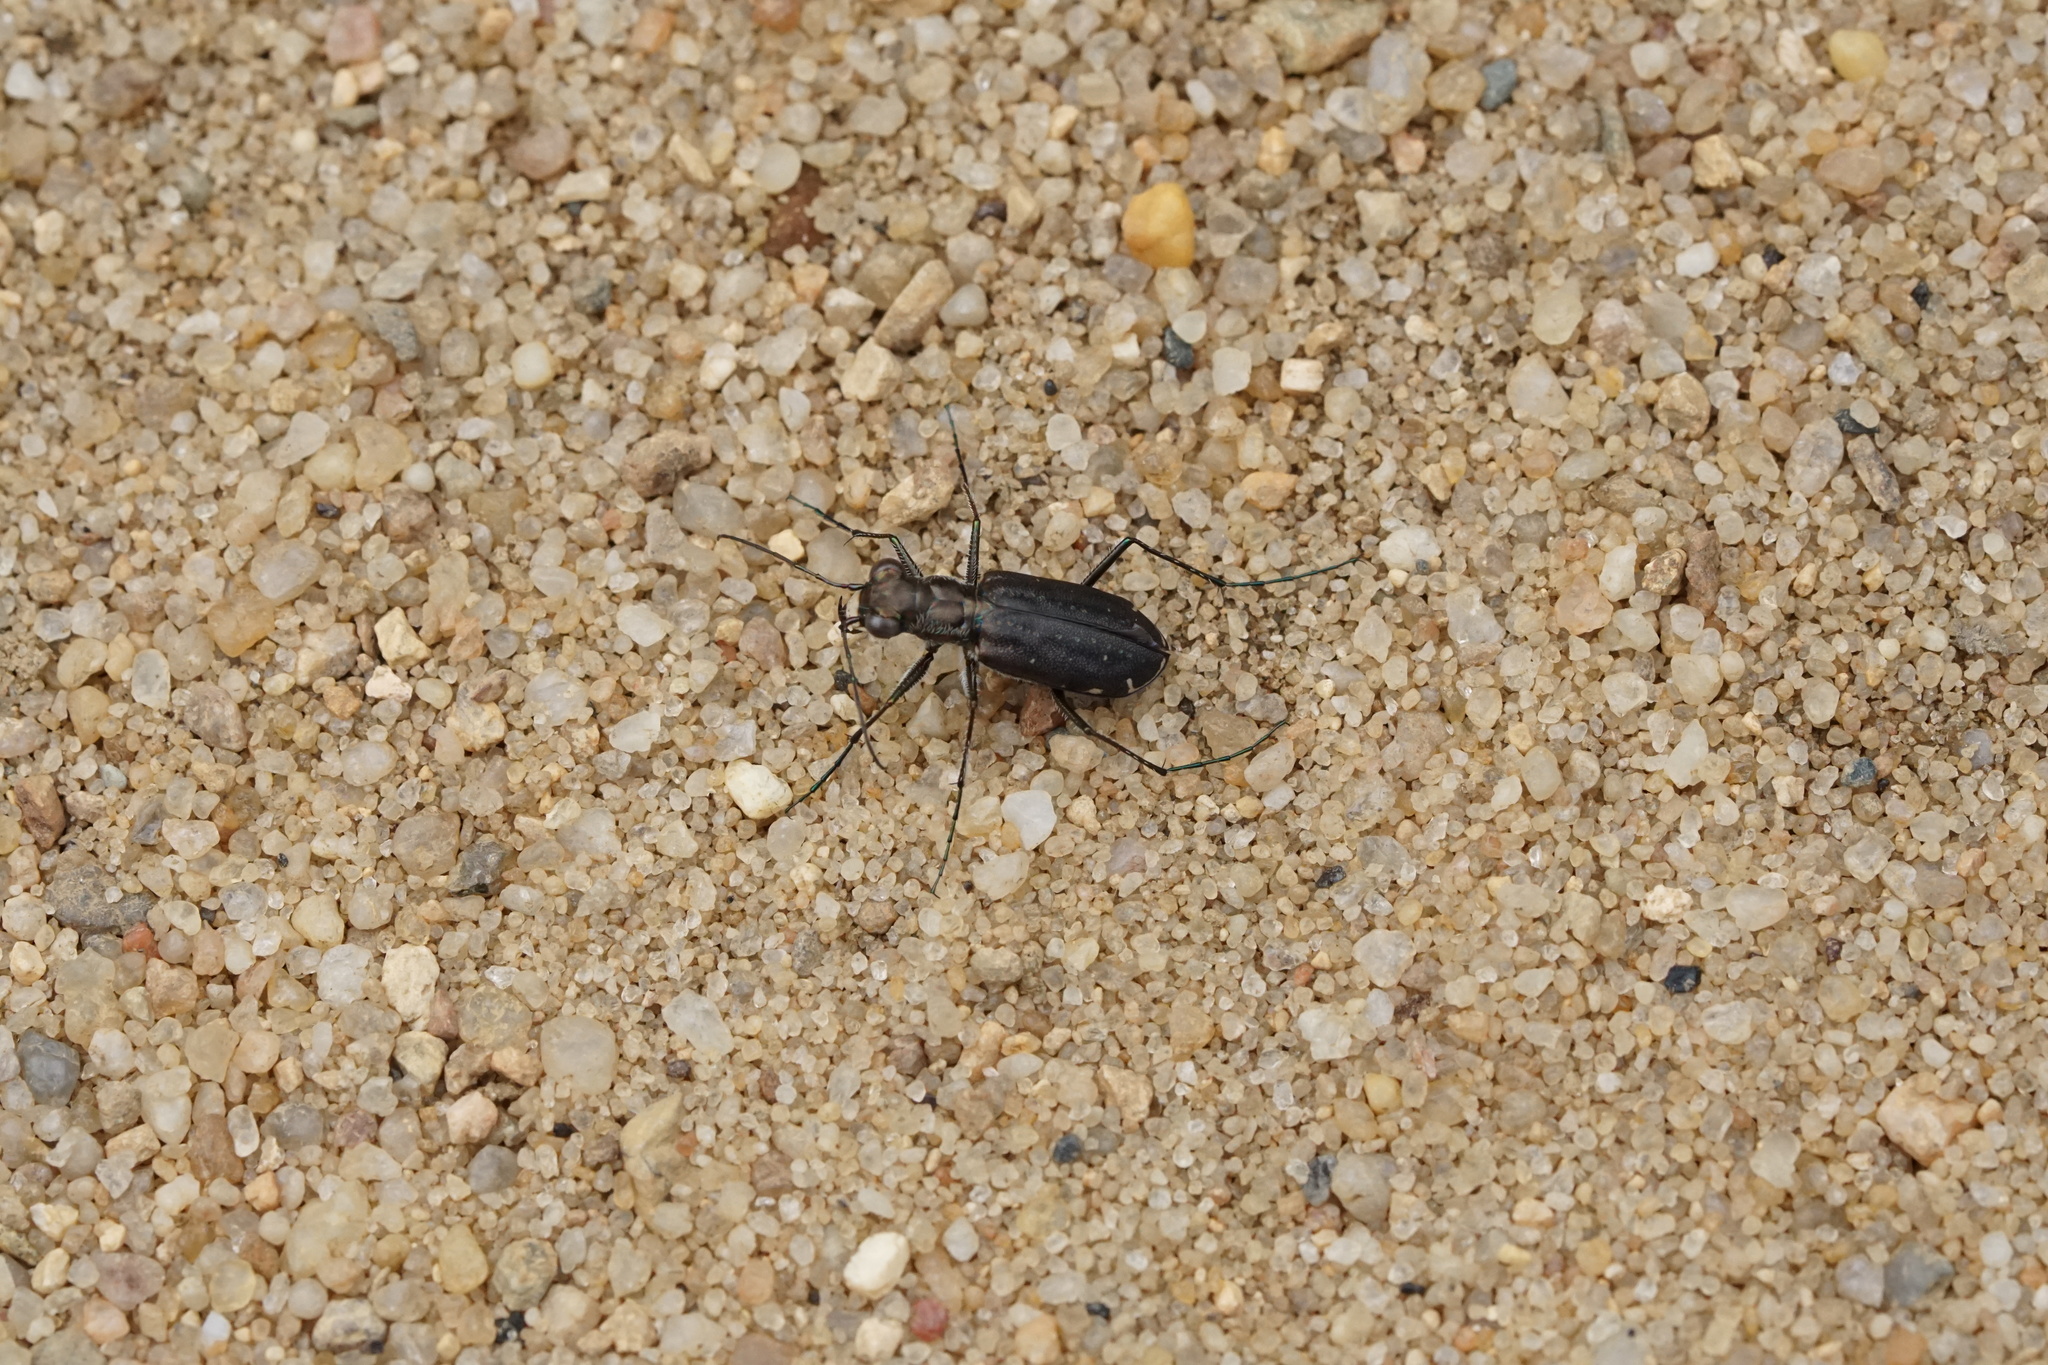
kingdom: Animalia
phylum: Arthropoda
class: Insecta
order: Coleoptera
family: Carabidae
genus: Cicindela
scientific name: Cicindela punctulata
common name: Punctured tiger beetle
